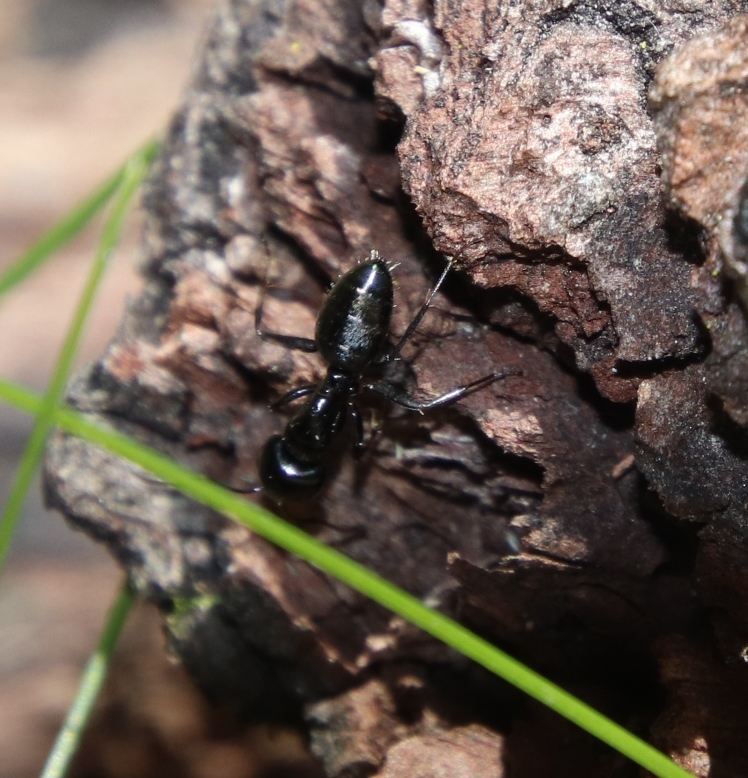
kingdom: Animalia
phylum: Arthropoda
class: Insecta
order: Hymenoptera
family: Formicidae
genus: Camponotus
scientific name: Camponotus werthi
